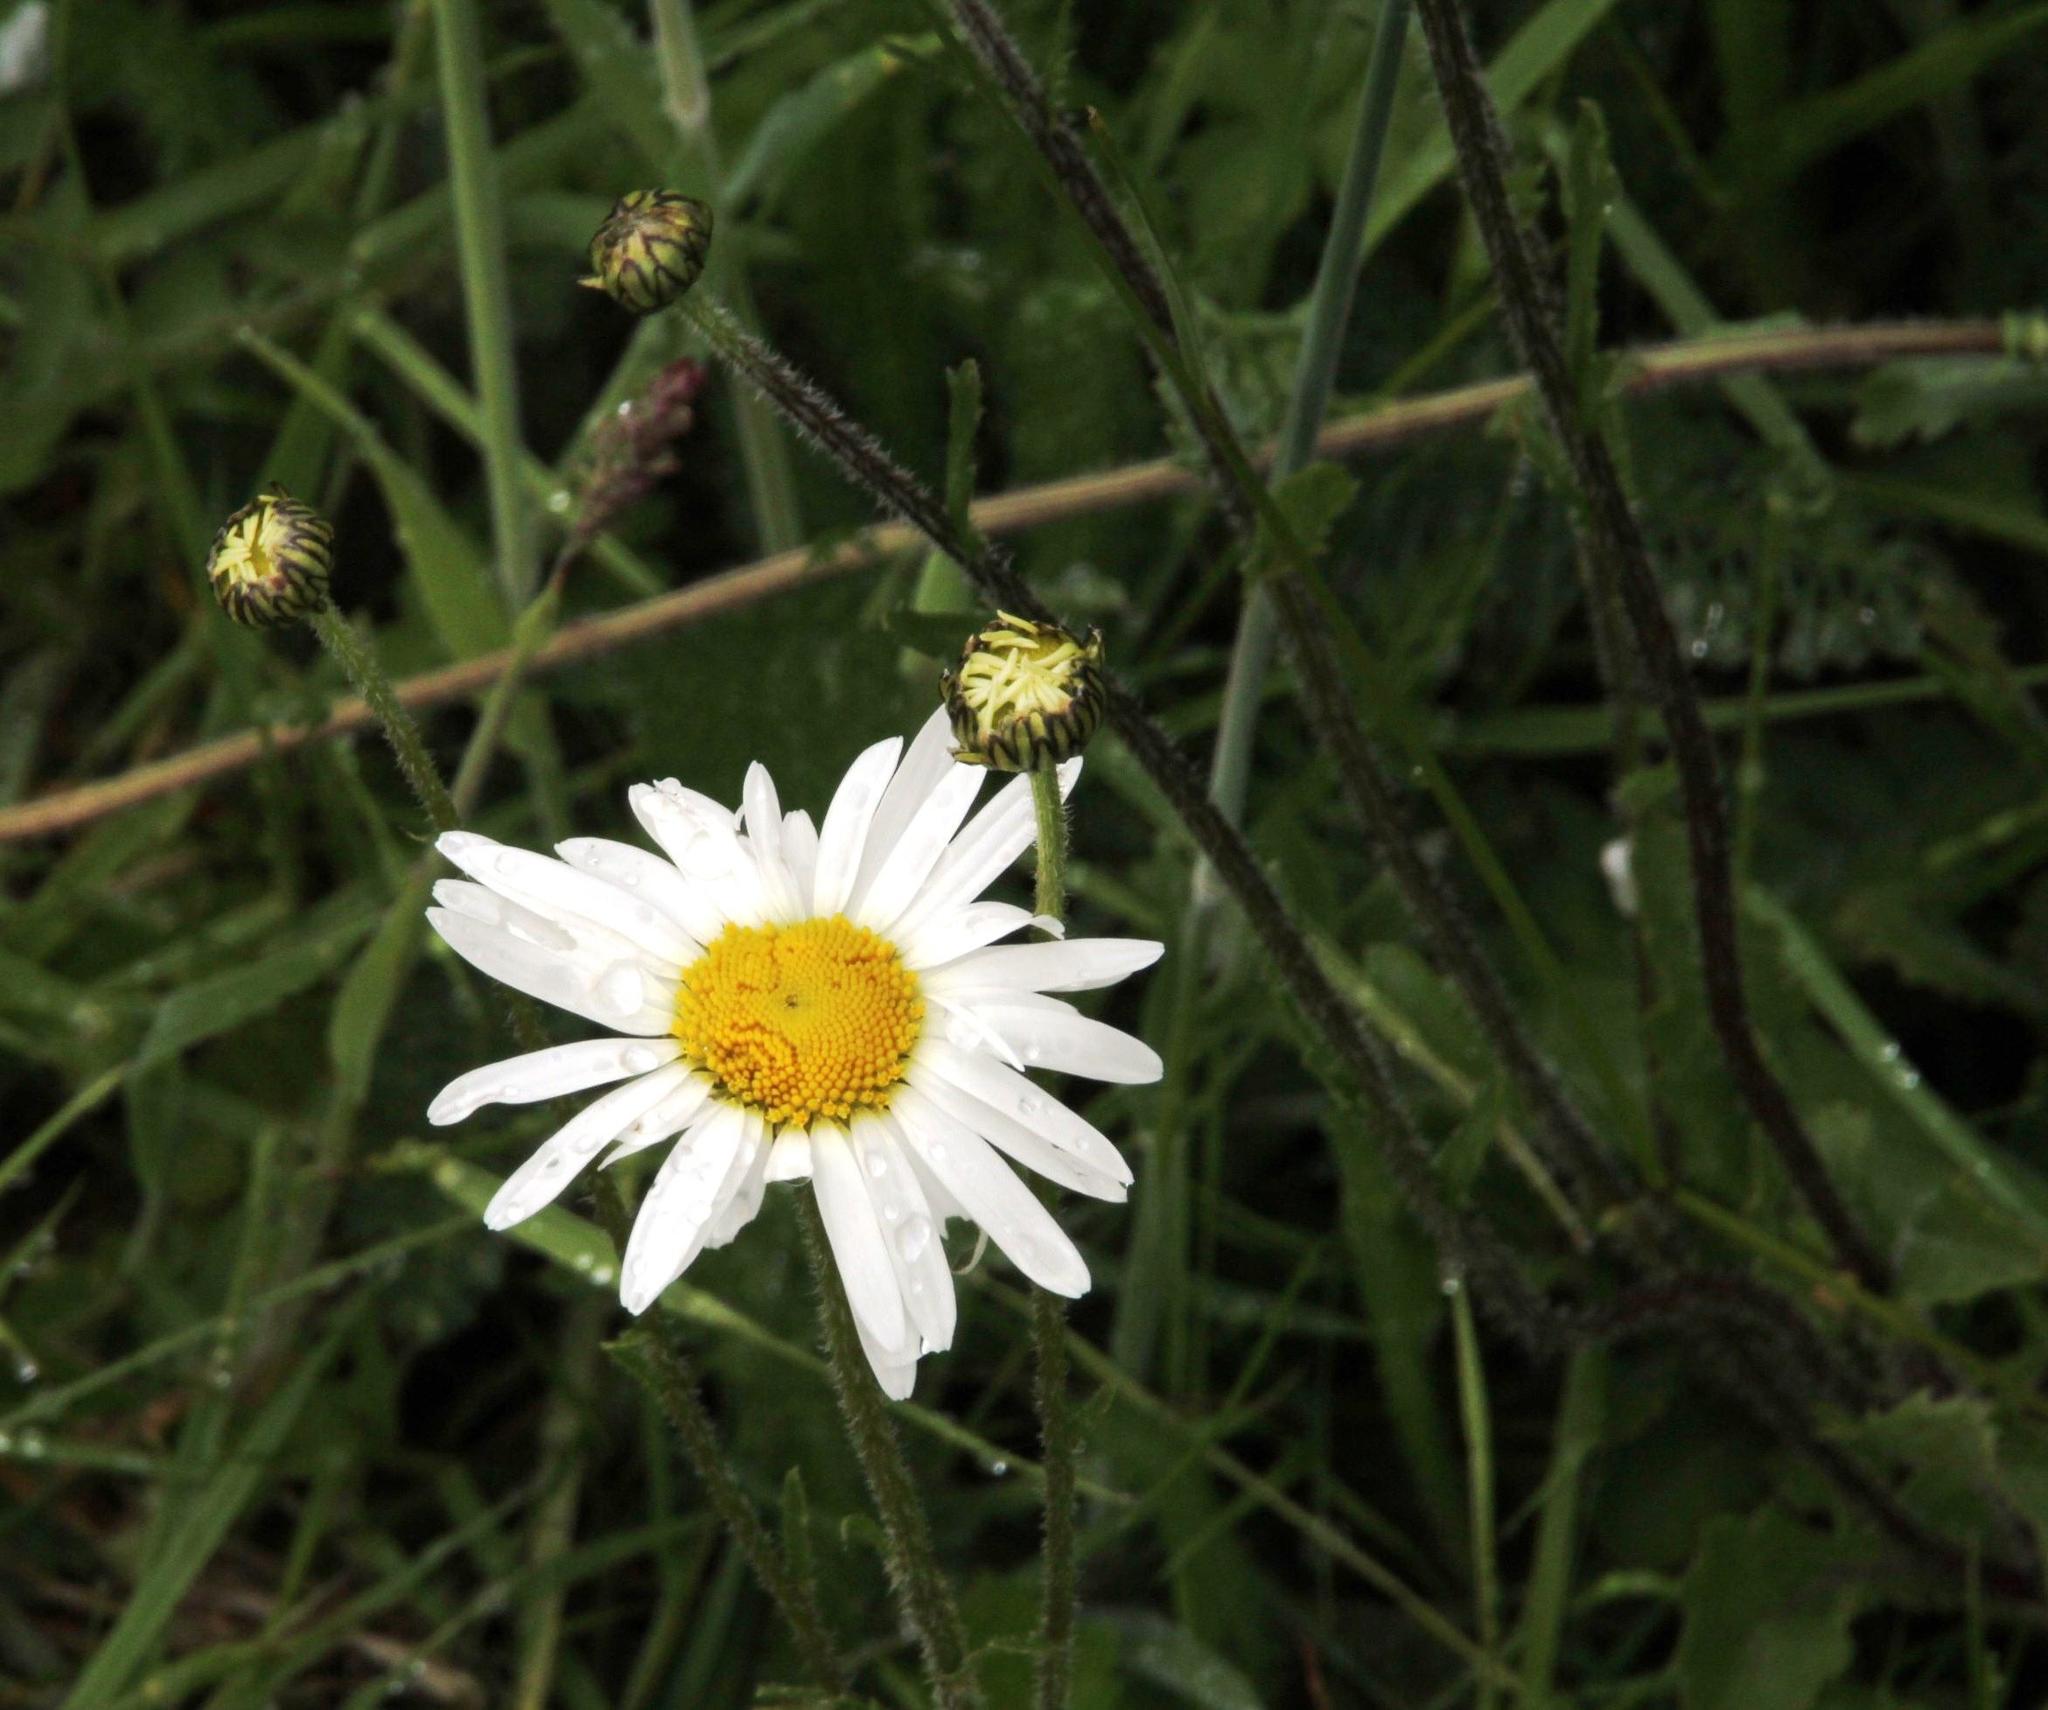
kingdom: Plantae
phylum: Tracheophyta
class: Magnoliopsida
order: Asterales
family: Asteraceae
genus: Leucanthemum
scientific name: Leucanthemum vulgare
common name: Oxeye daisy
